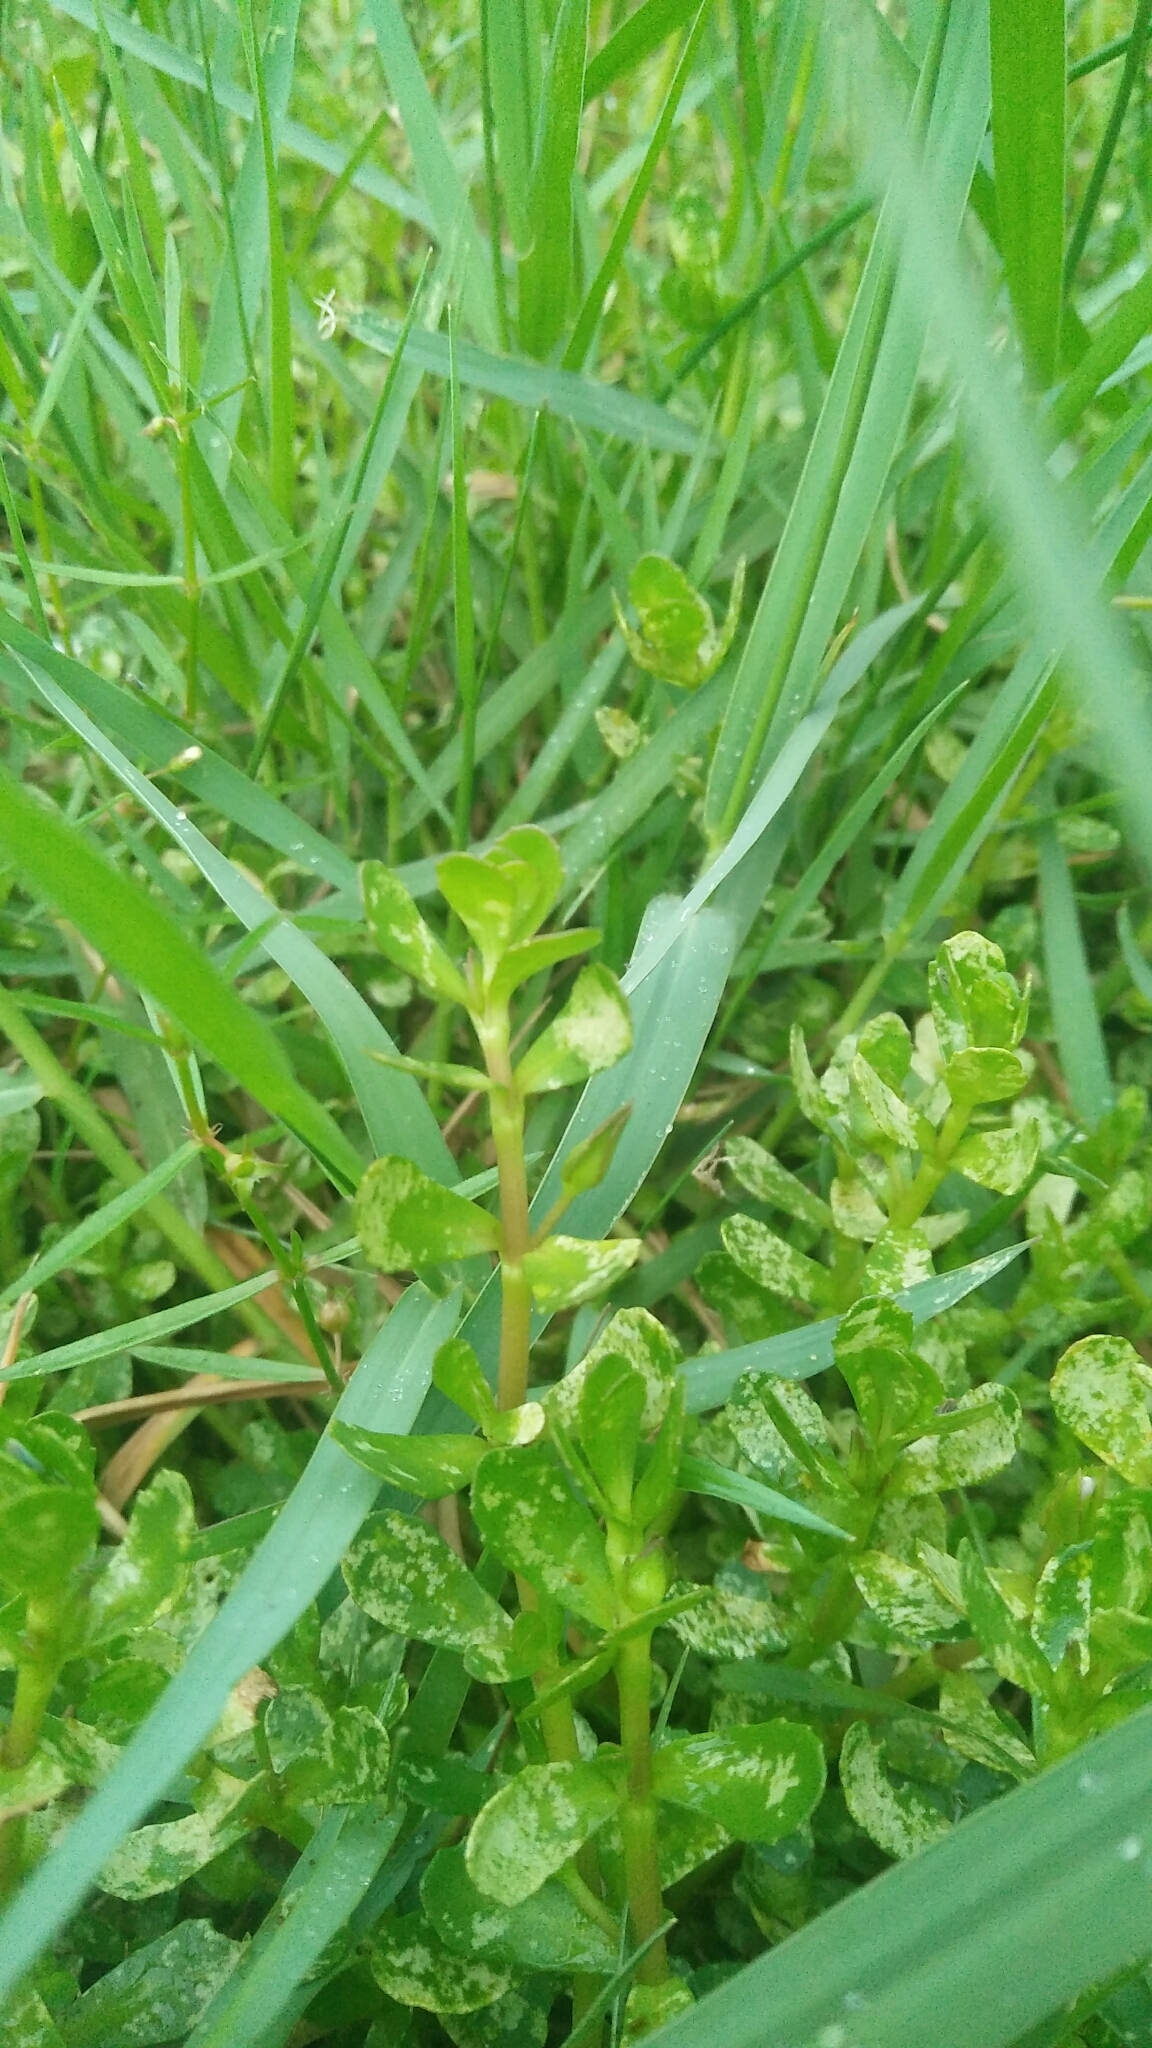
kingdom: Plantae
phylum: Tracheophyta
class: Magnoliopsida
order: Lamiales
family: Plantaginaceae
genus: Bacopa
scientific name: Bacopa monnieri
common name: Indian-pennywort
